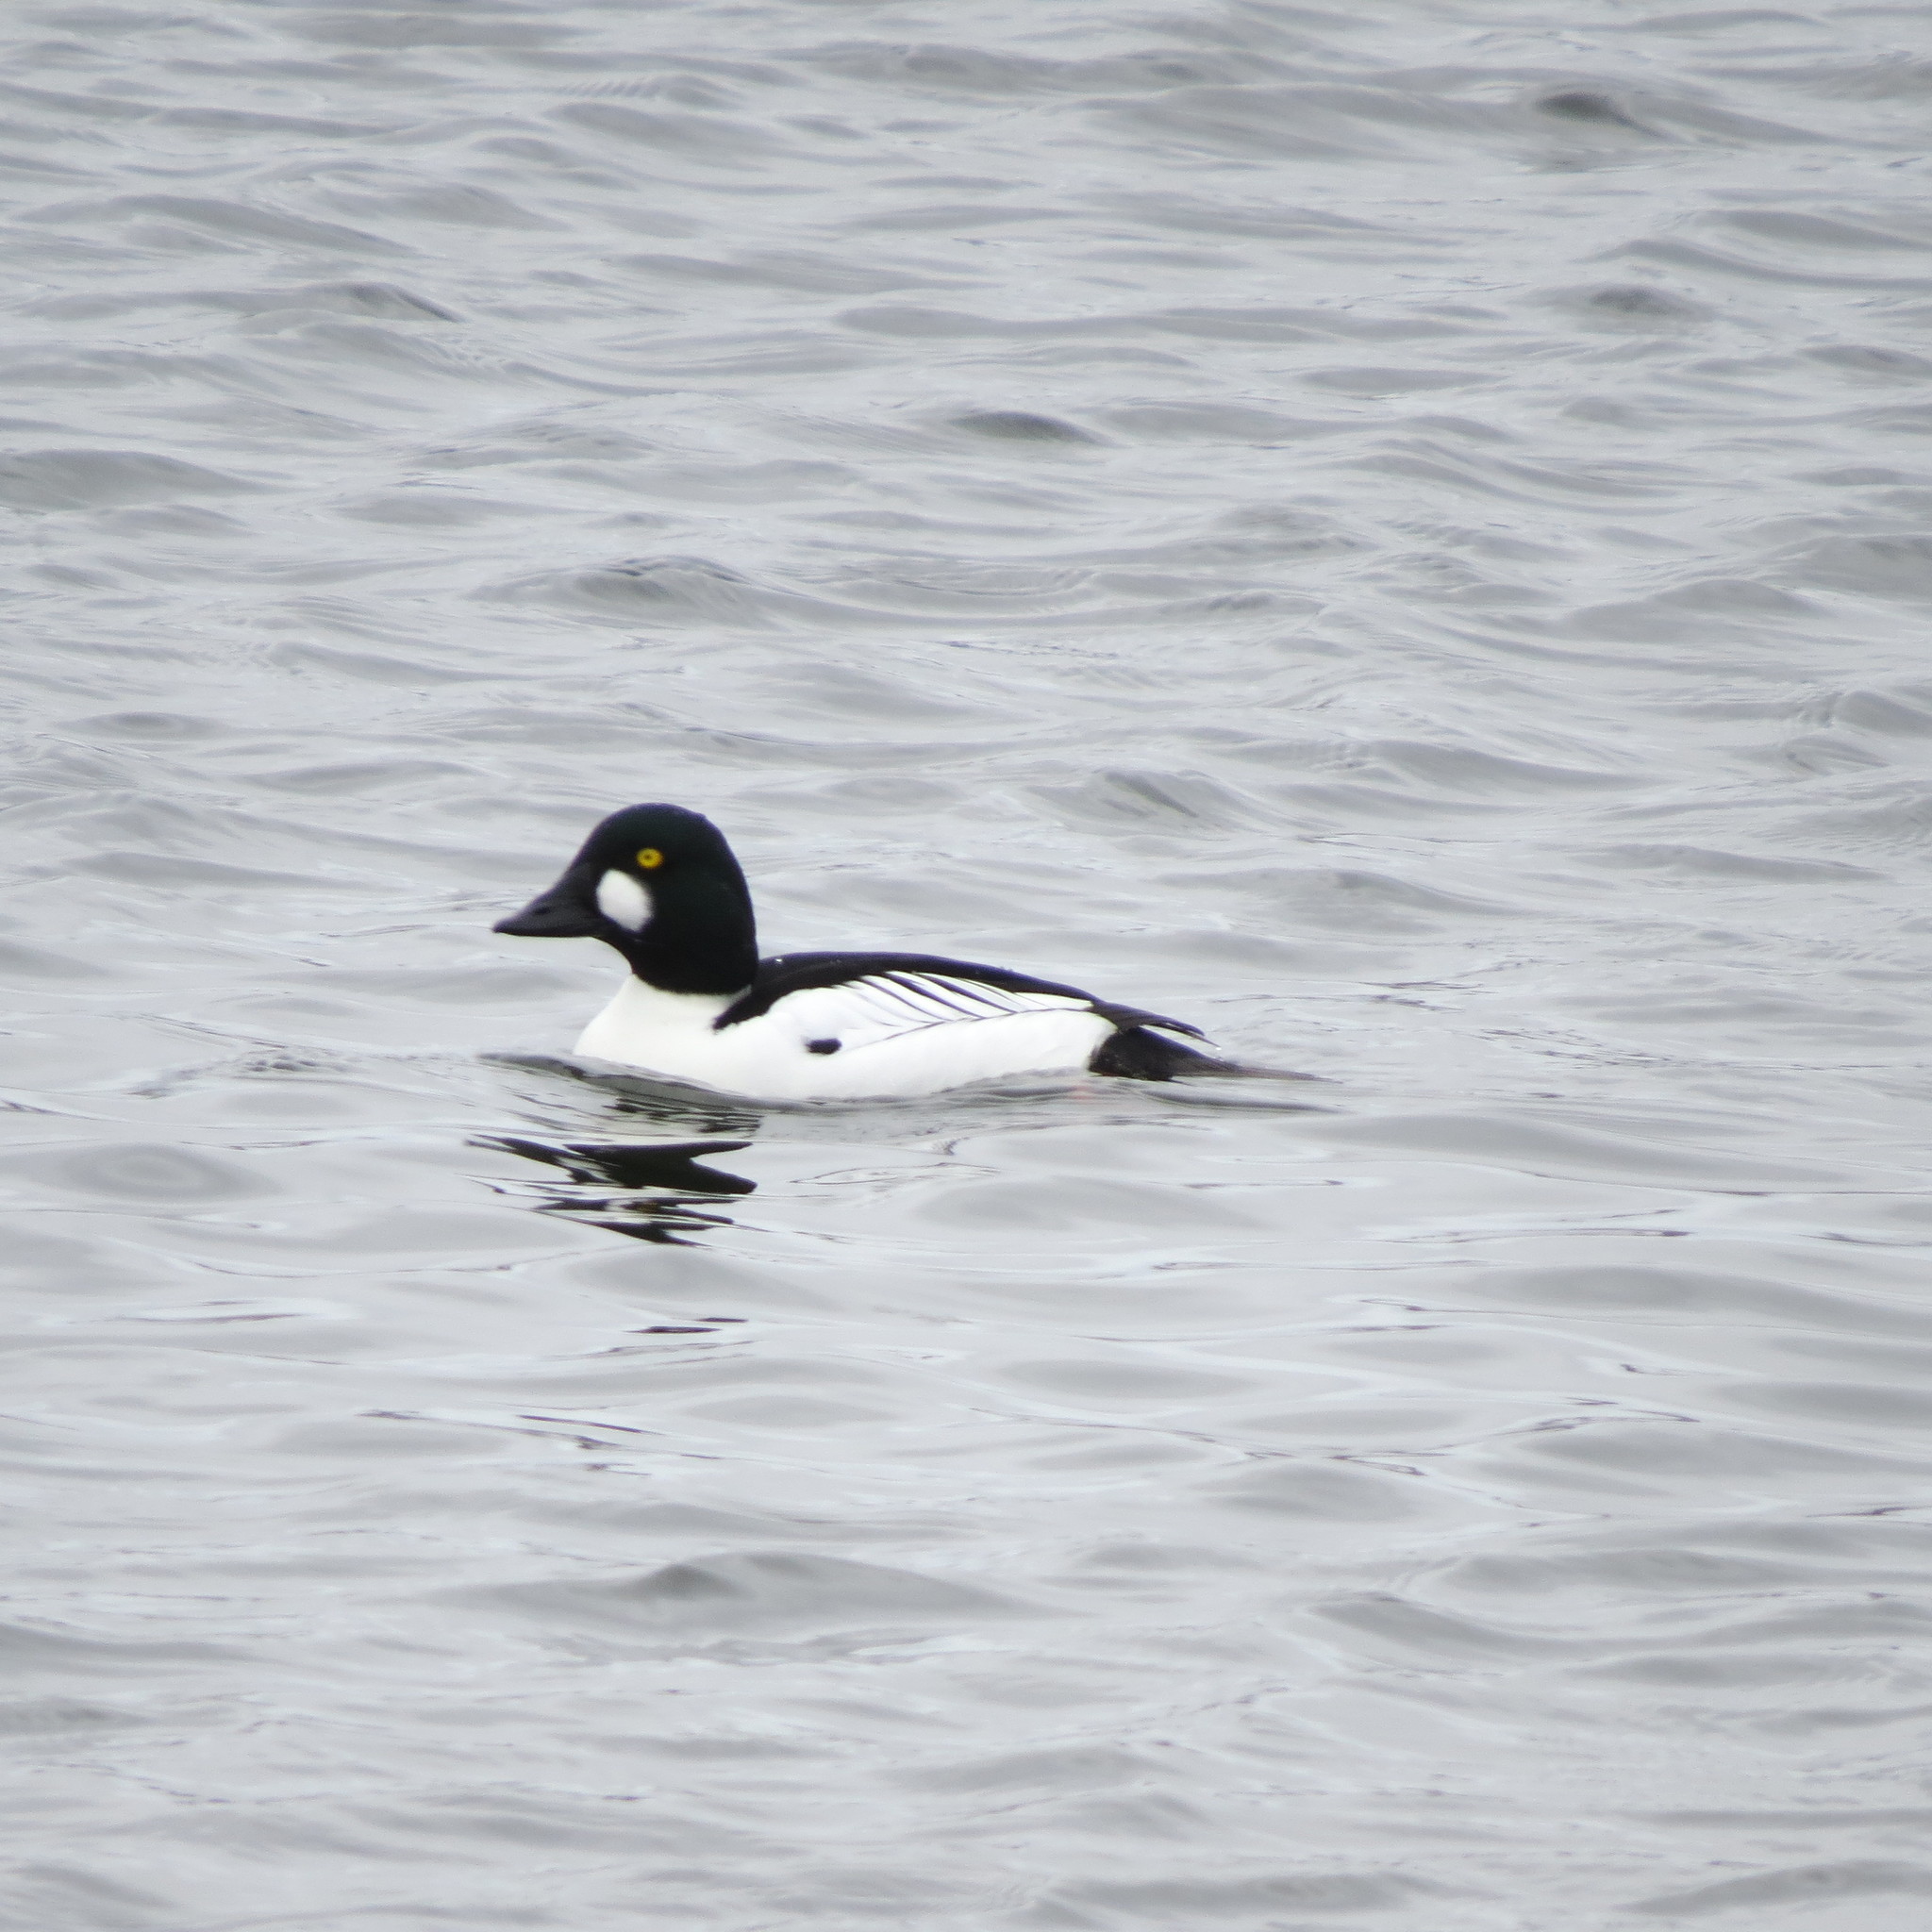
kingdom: Animalia
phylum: Chordata
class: Aves
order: Anseriformes
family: Anatidae
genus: Bucephala
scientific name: Bucephala clangula
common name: Common goldeneye
